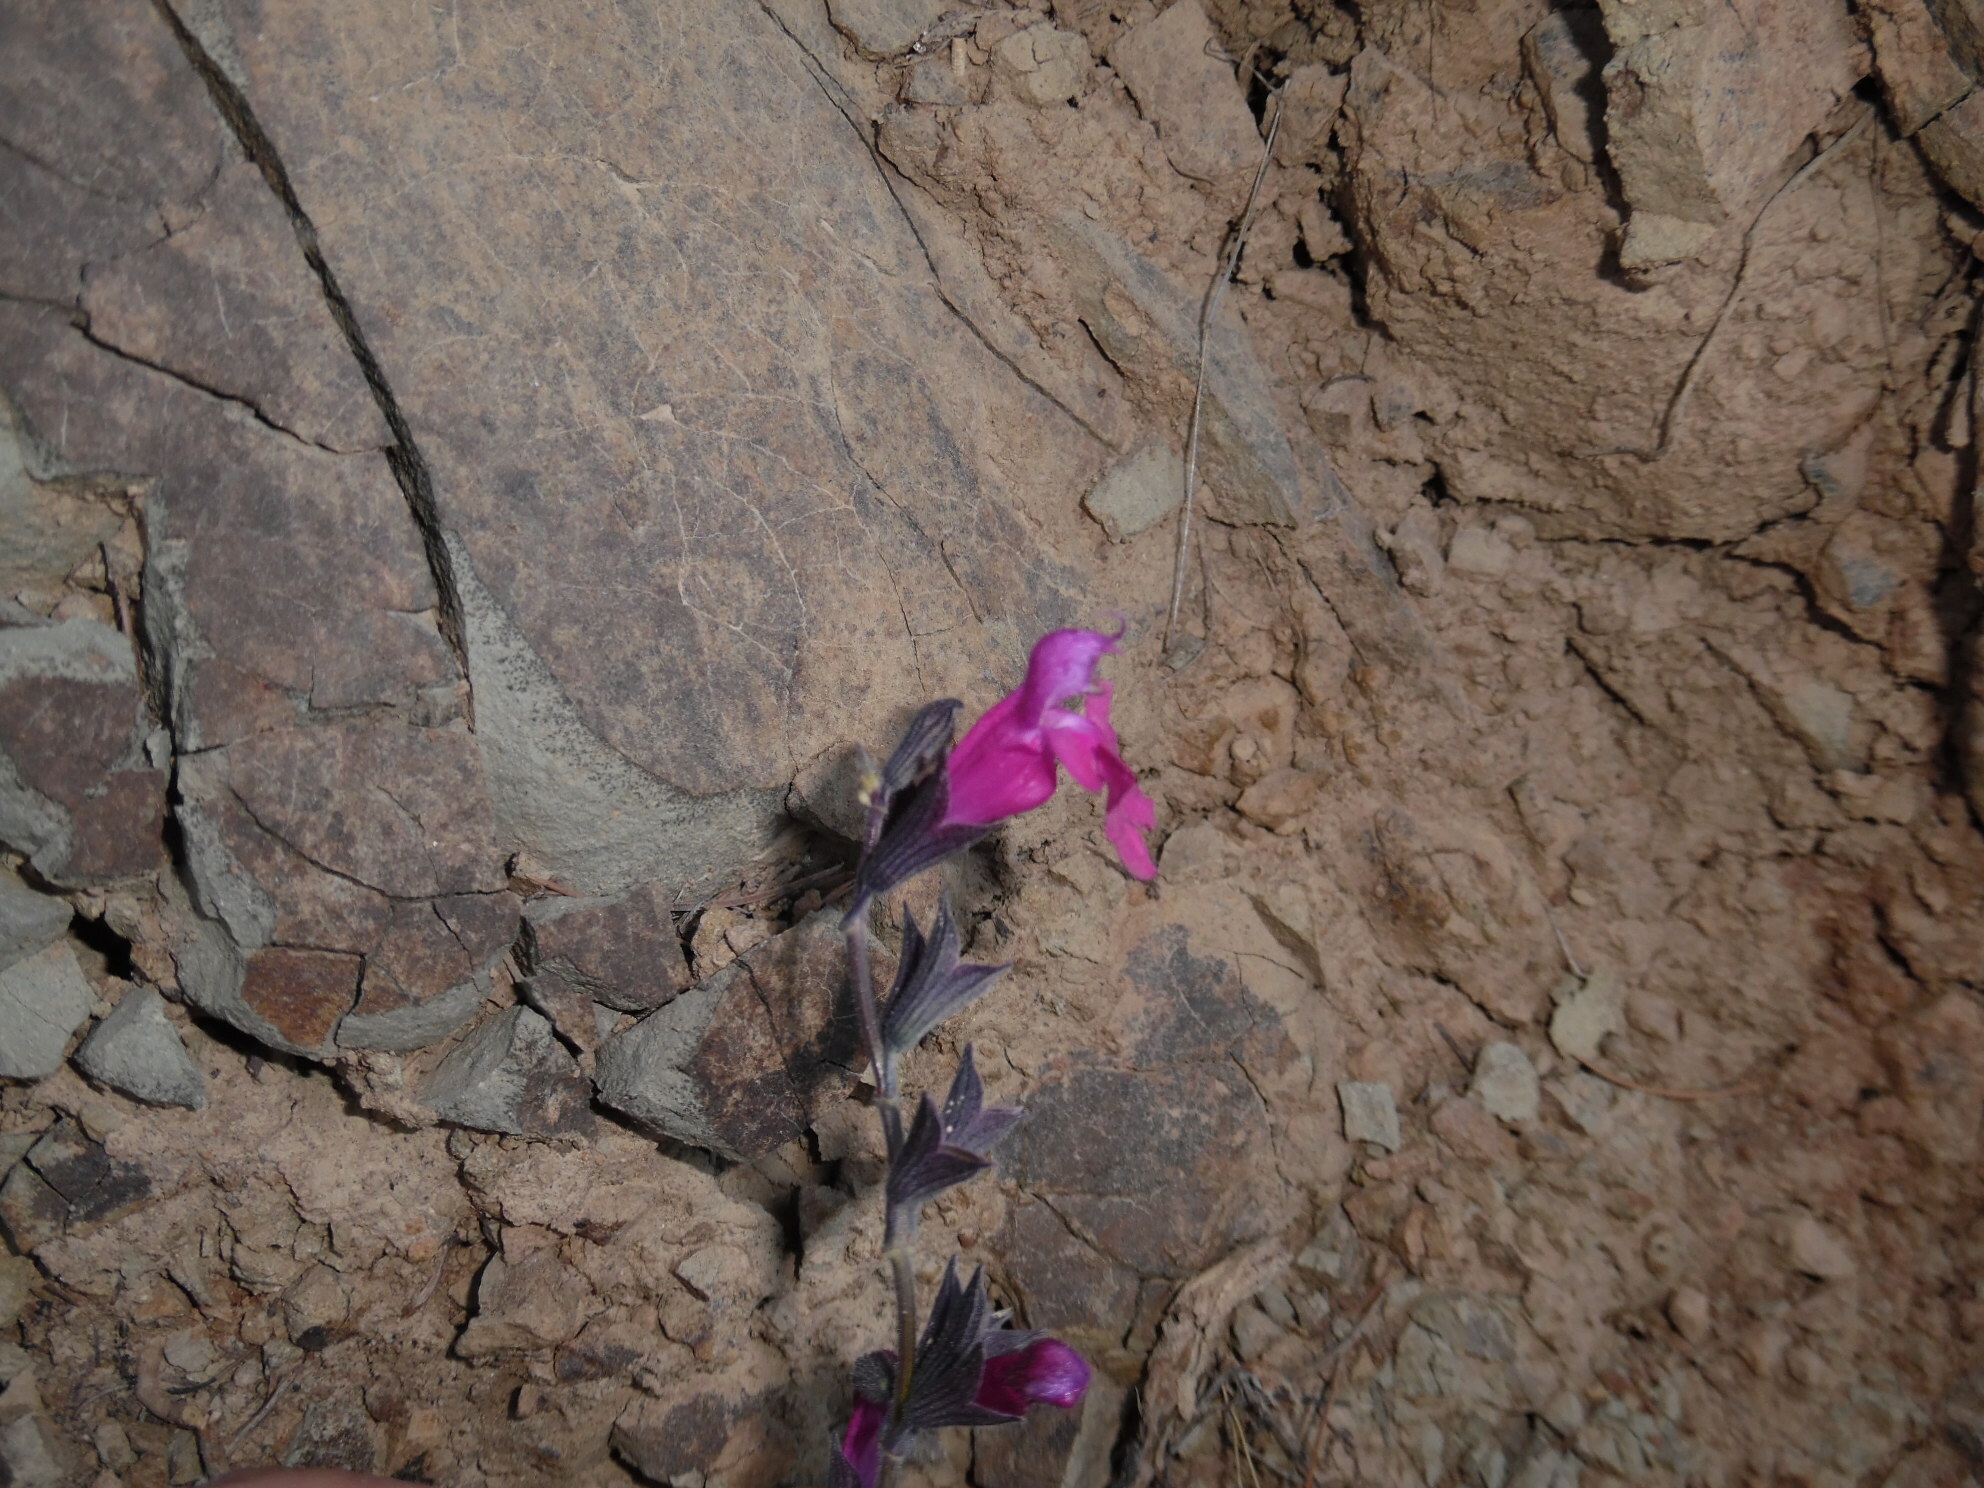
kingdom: Plantae
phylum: Tracheophyta
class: Magnoliopsida
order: Lamiales
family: Lamiaceae
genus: Salvia
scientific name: Salvia microphylla
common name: Baby sage
